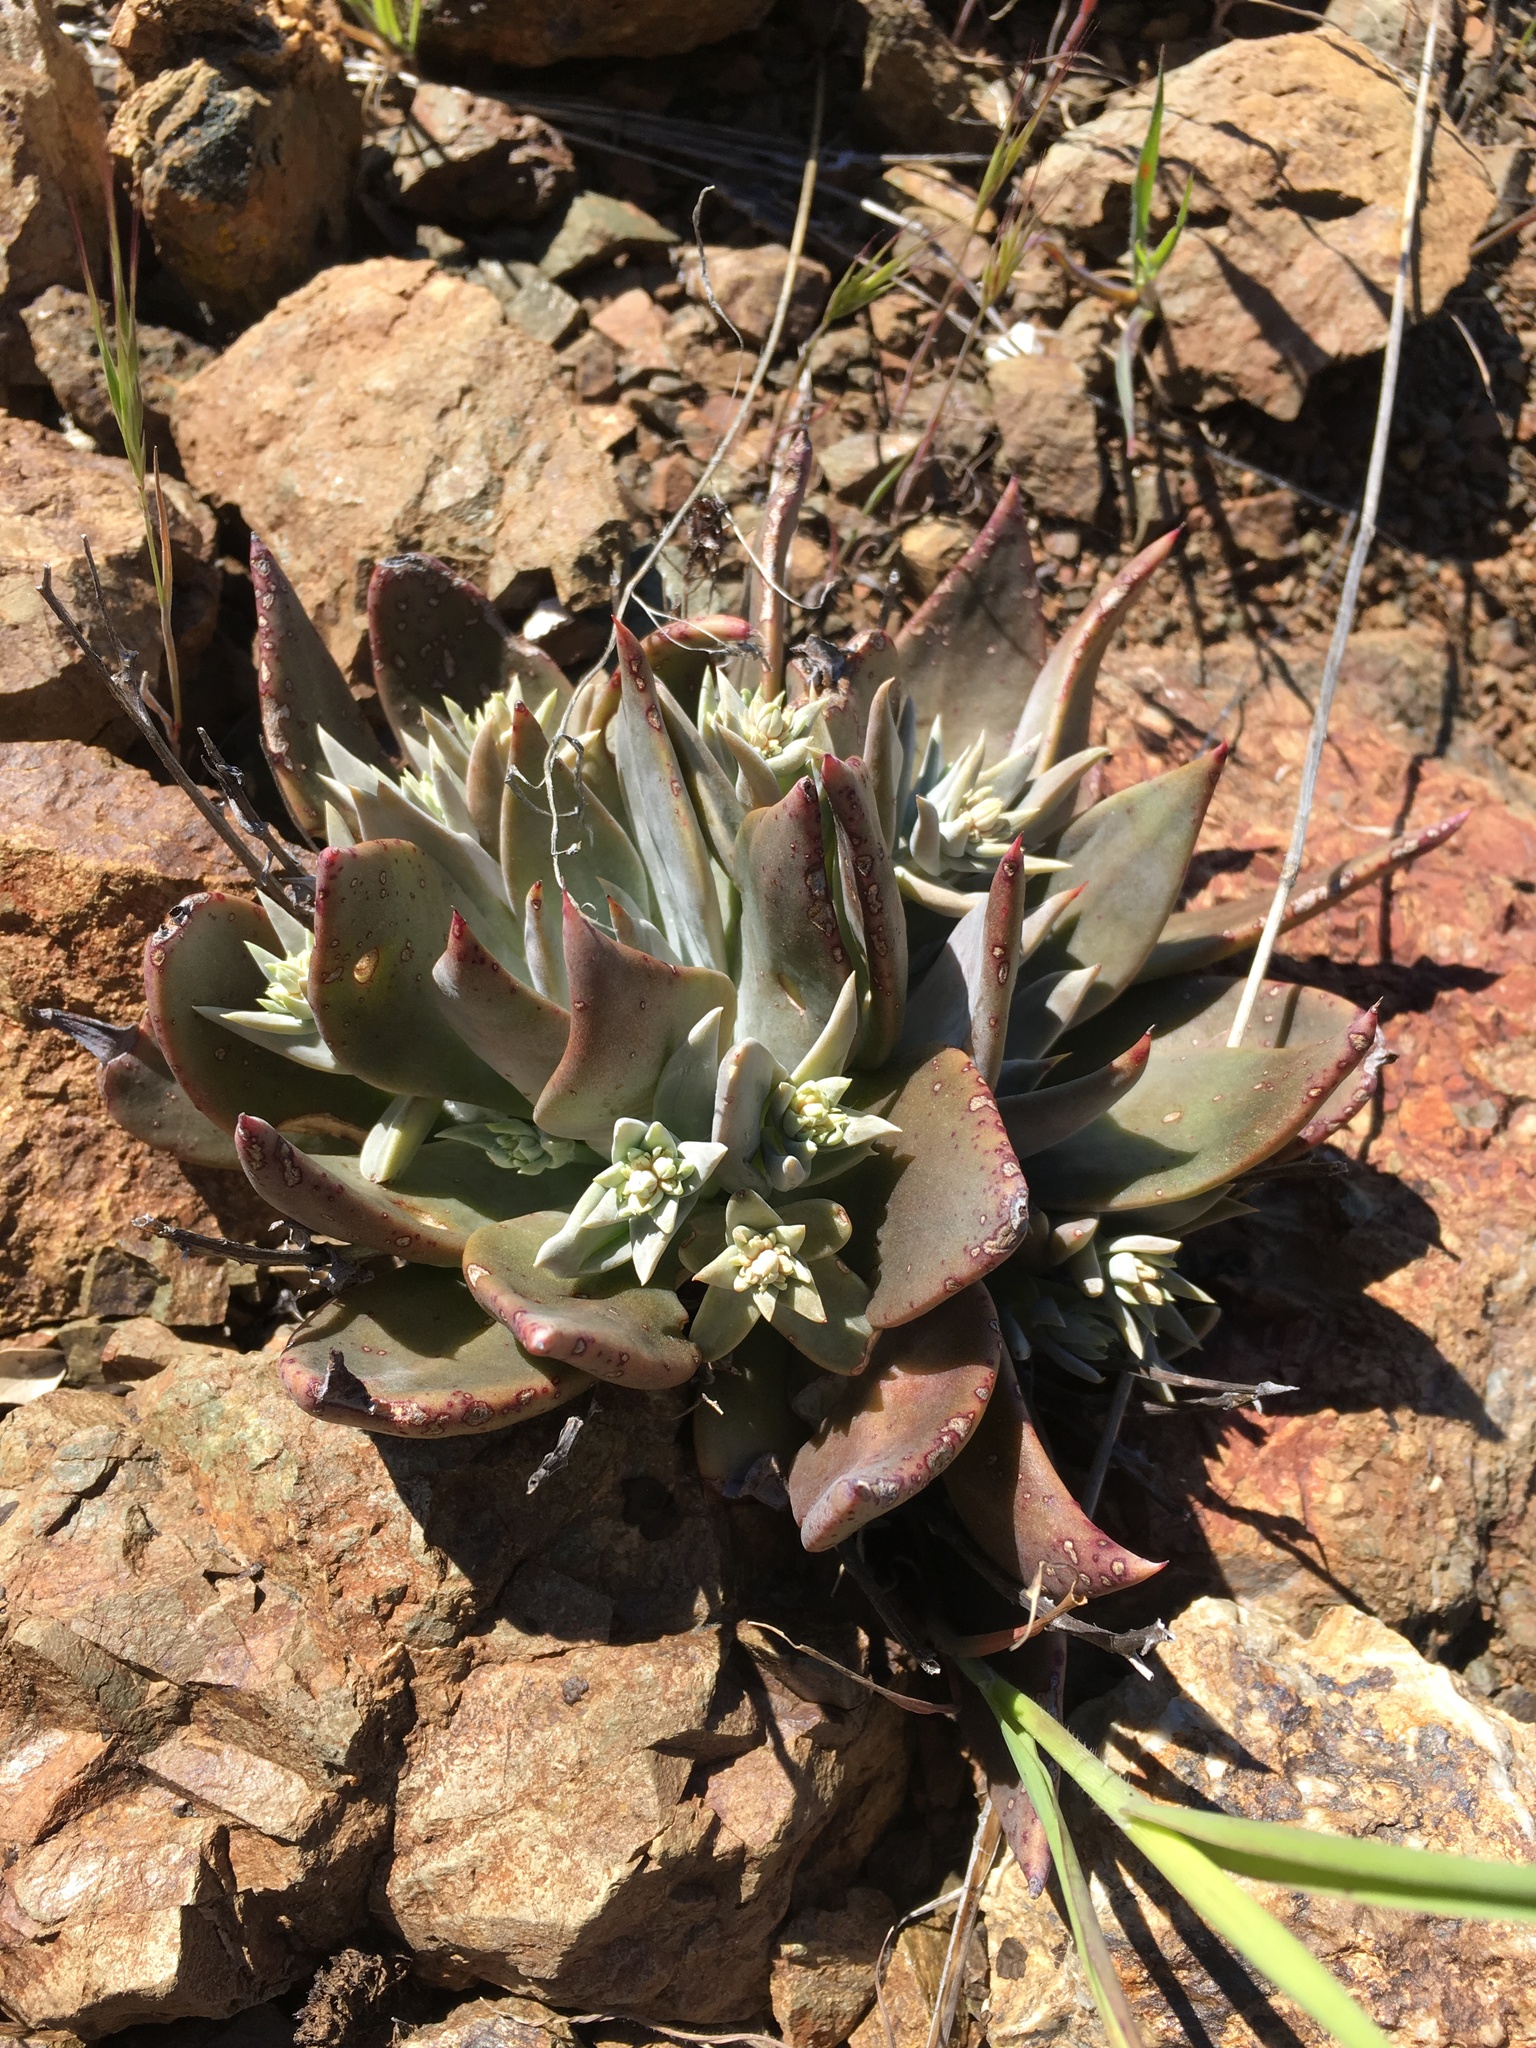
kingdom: Plantae
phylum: Tracheophyta
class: Magnoliopsida
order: Saxifragales
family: Crassulaceae
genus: Dudleya
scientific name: Dudleya cymosa
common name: Canyon dudleya
